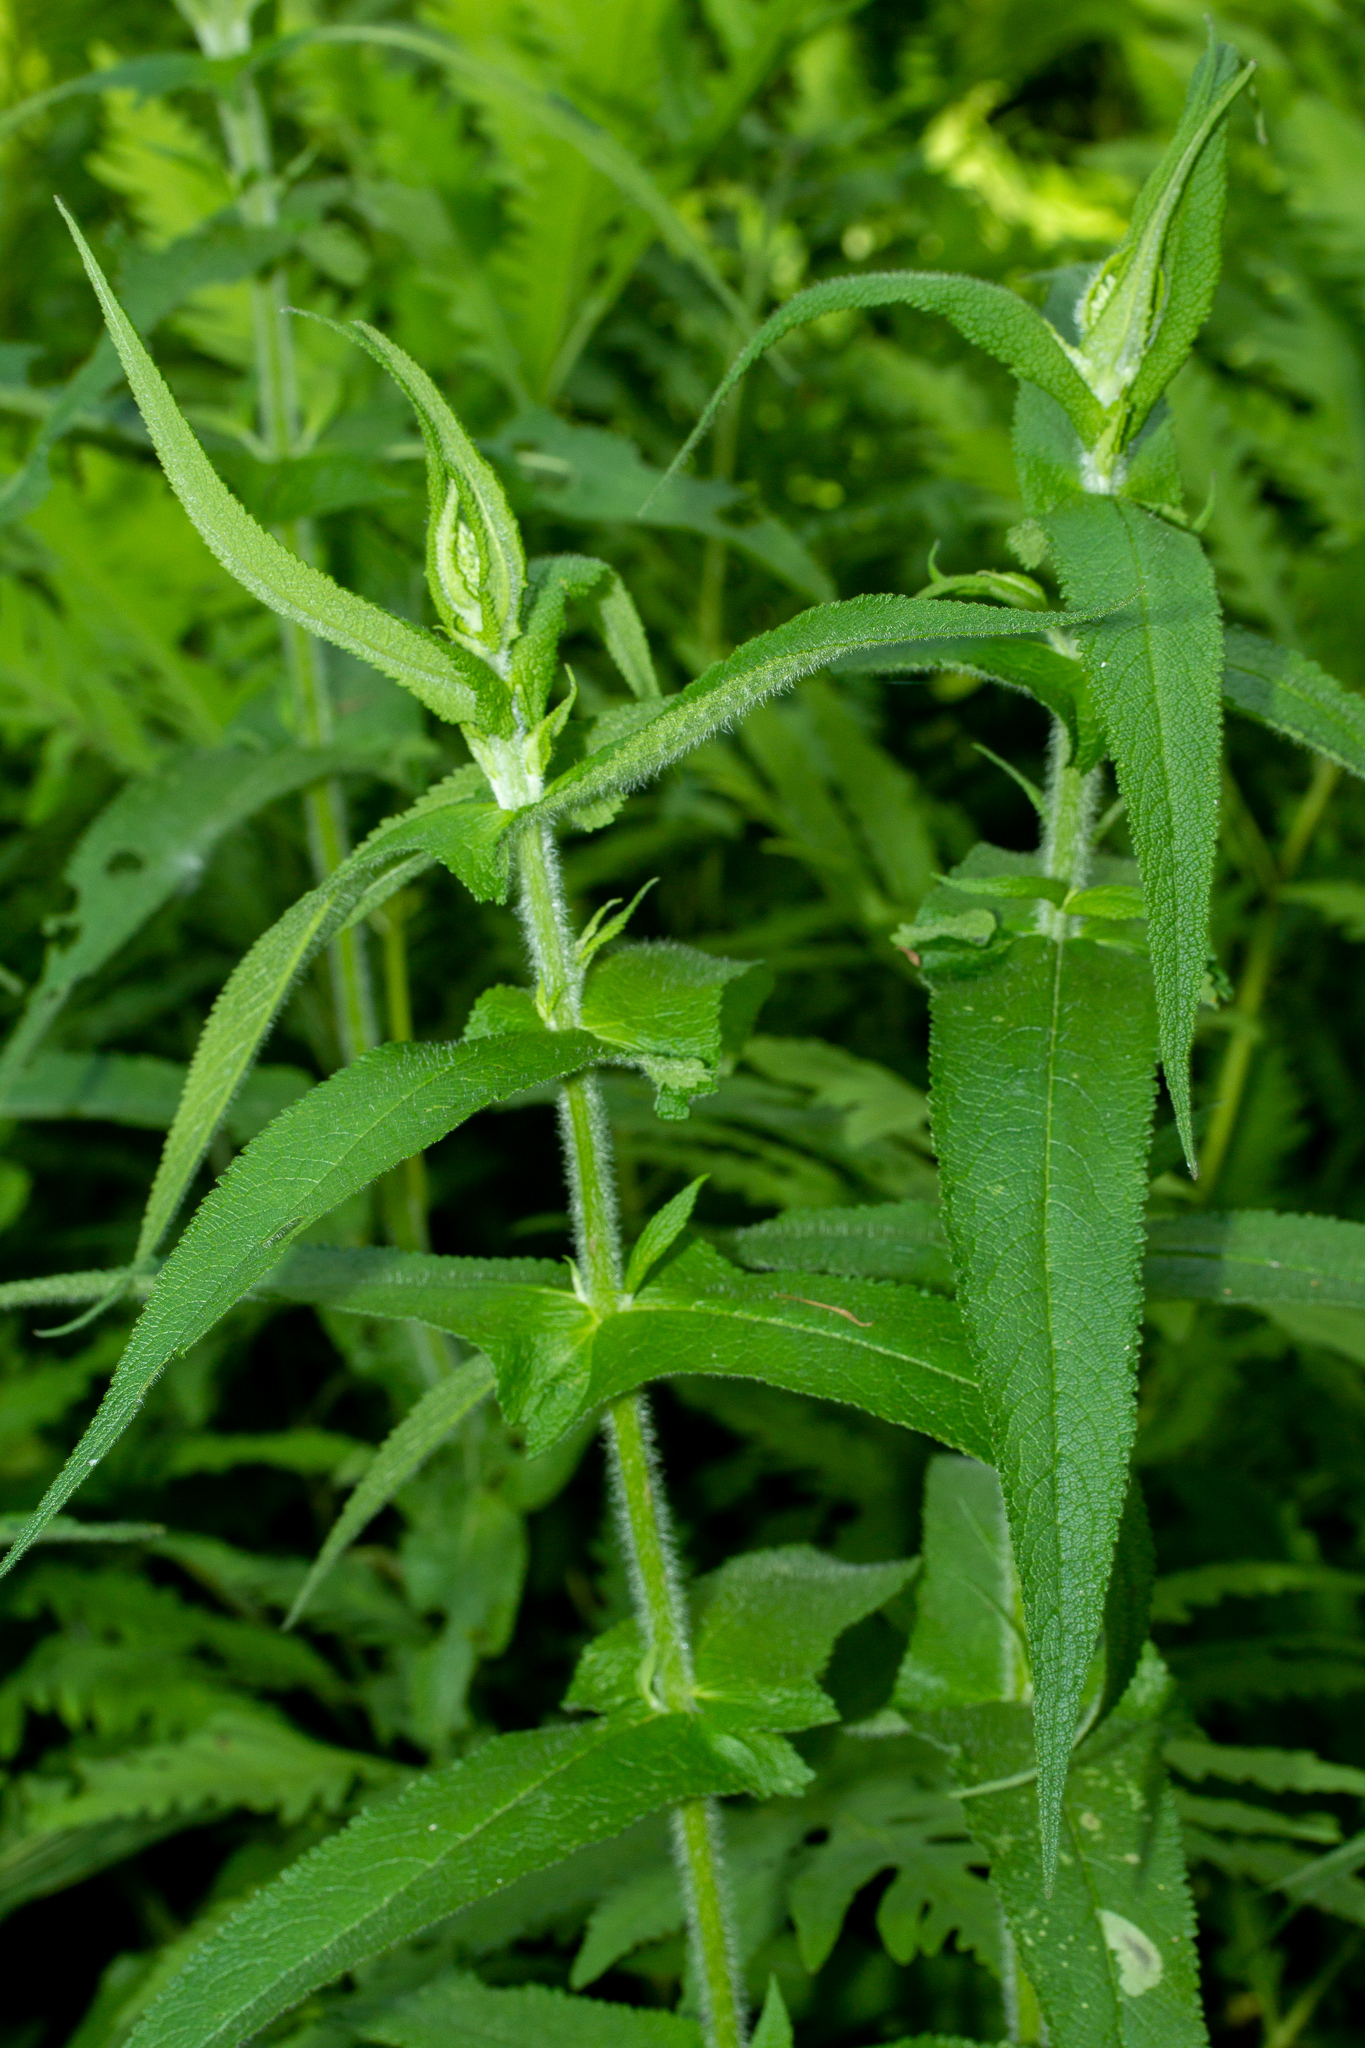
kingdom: Plantae
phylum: Tracheophyta
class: Magnoliopsida
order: Asterales
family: Asteraceae
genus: Eupatorium
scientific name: Eupatorium perfoliatum
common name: Boneset
